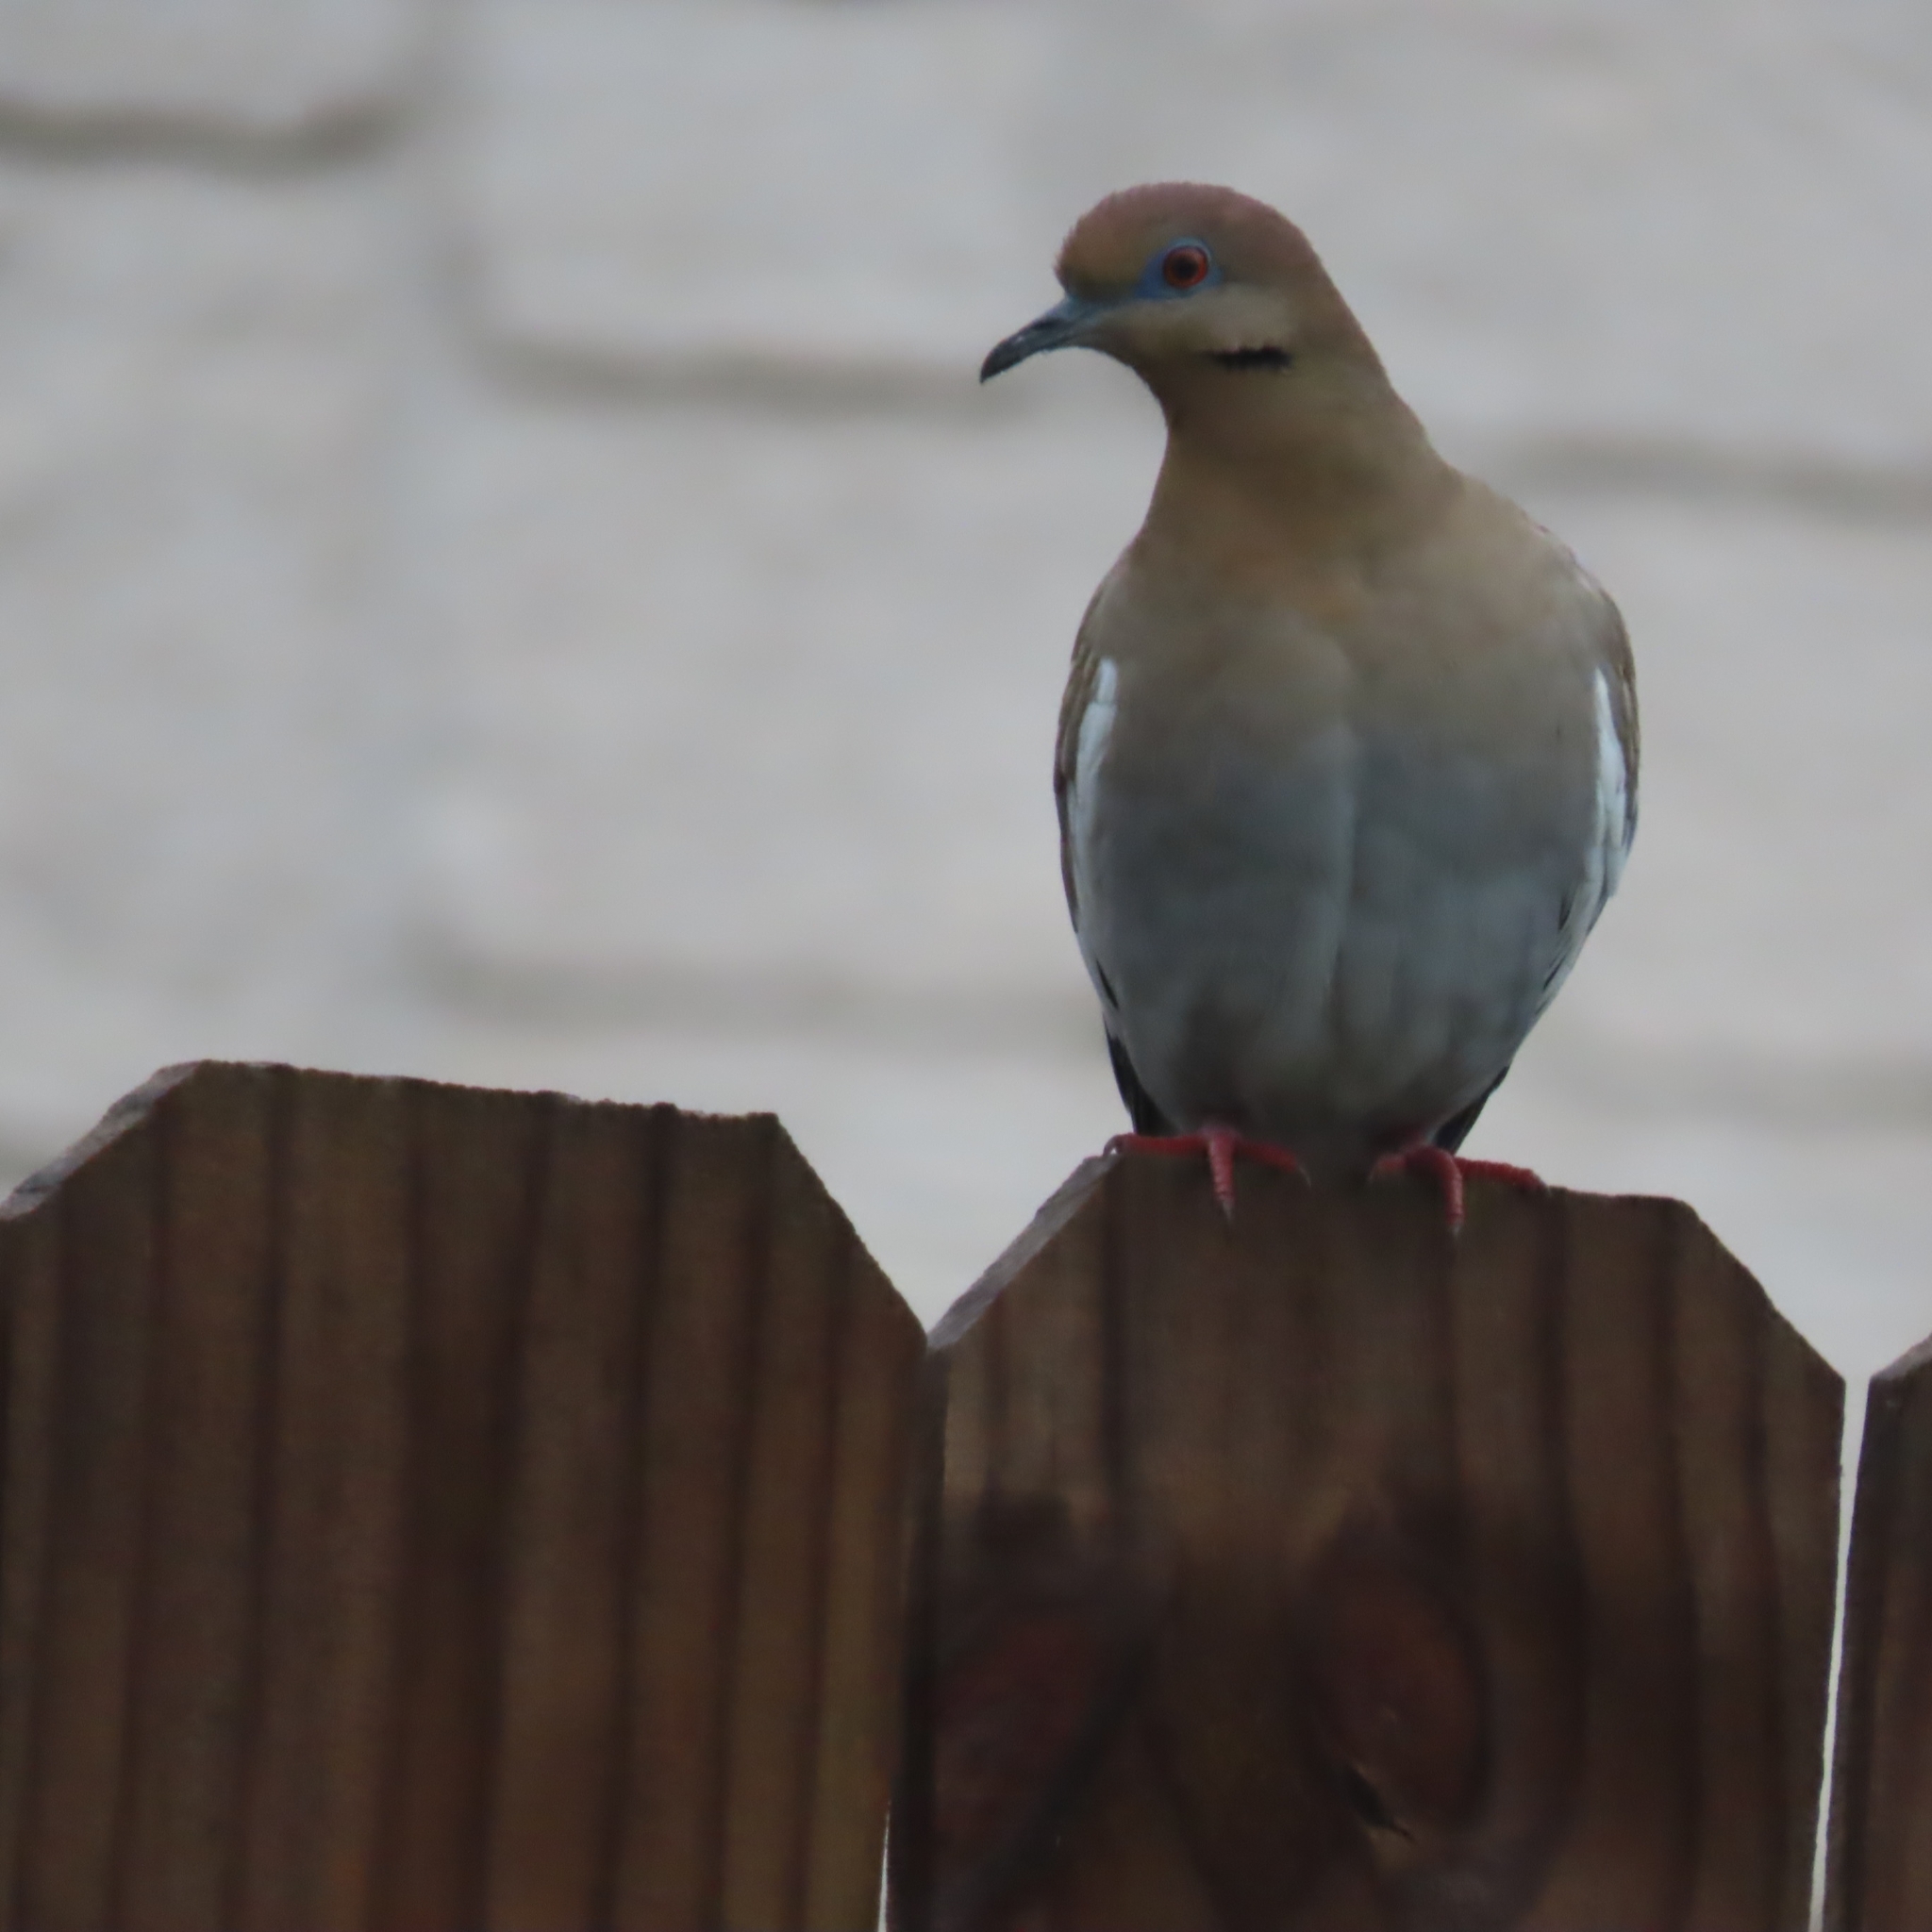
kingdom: Animalia
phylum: Chordata
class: Aves
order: Columbiformes
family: Columbidae
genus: Zenaida
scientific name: Zenaida asiatica
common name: White-winged dove
